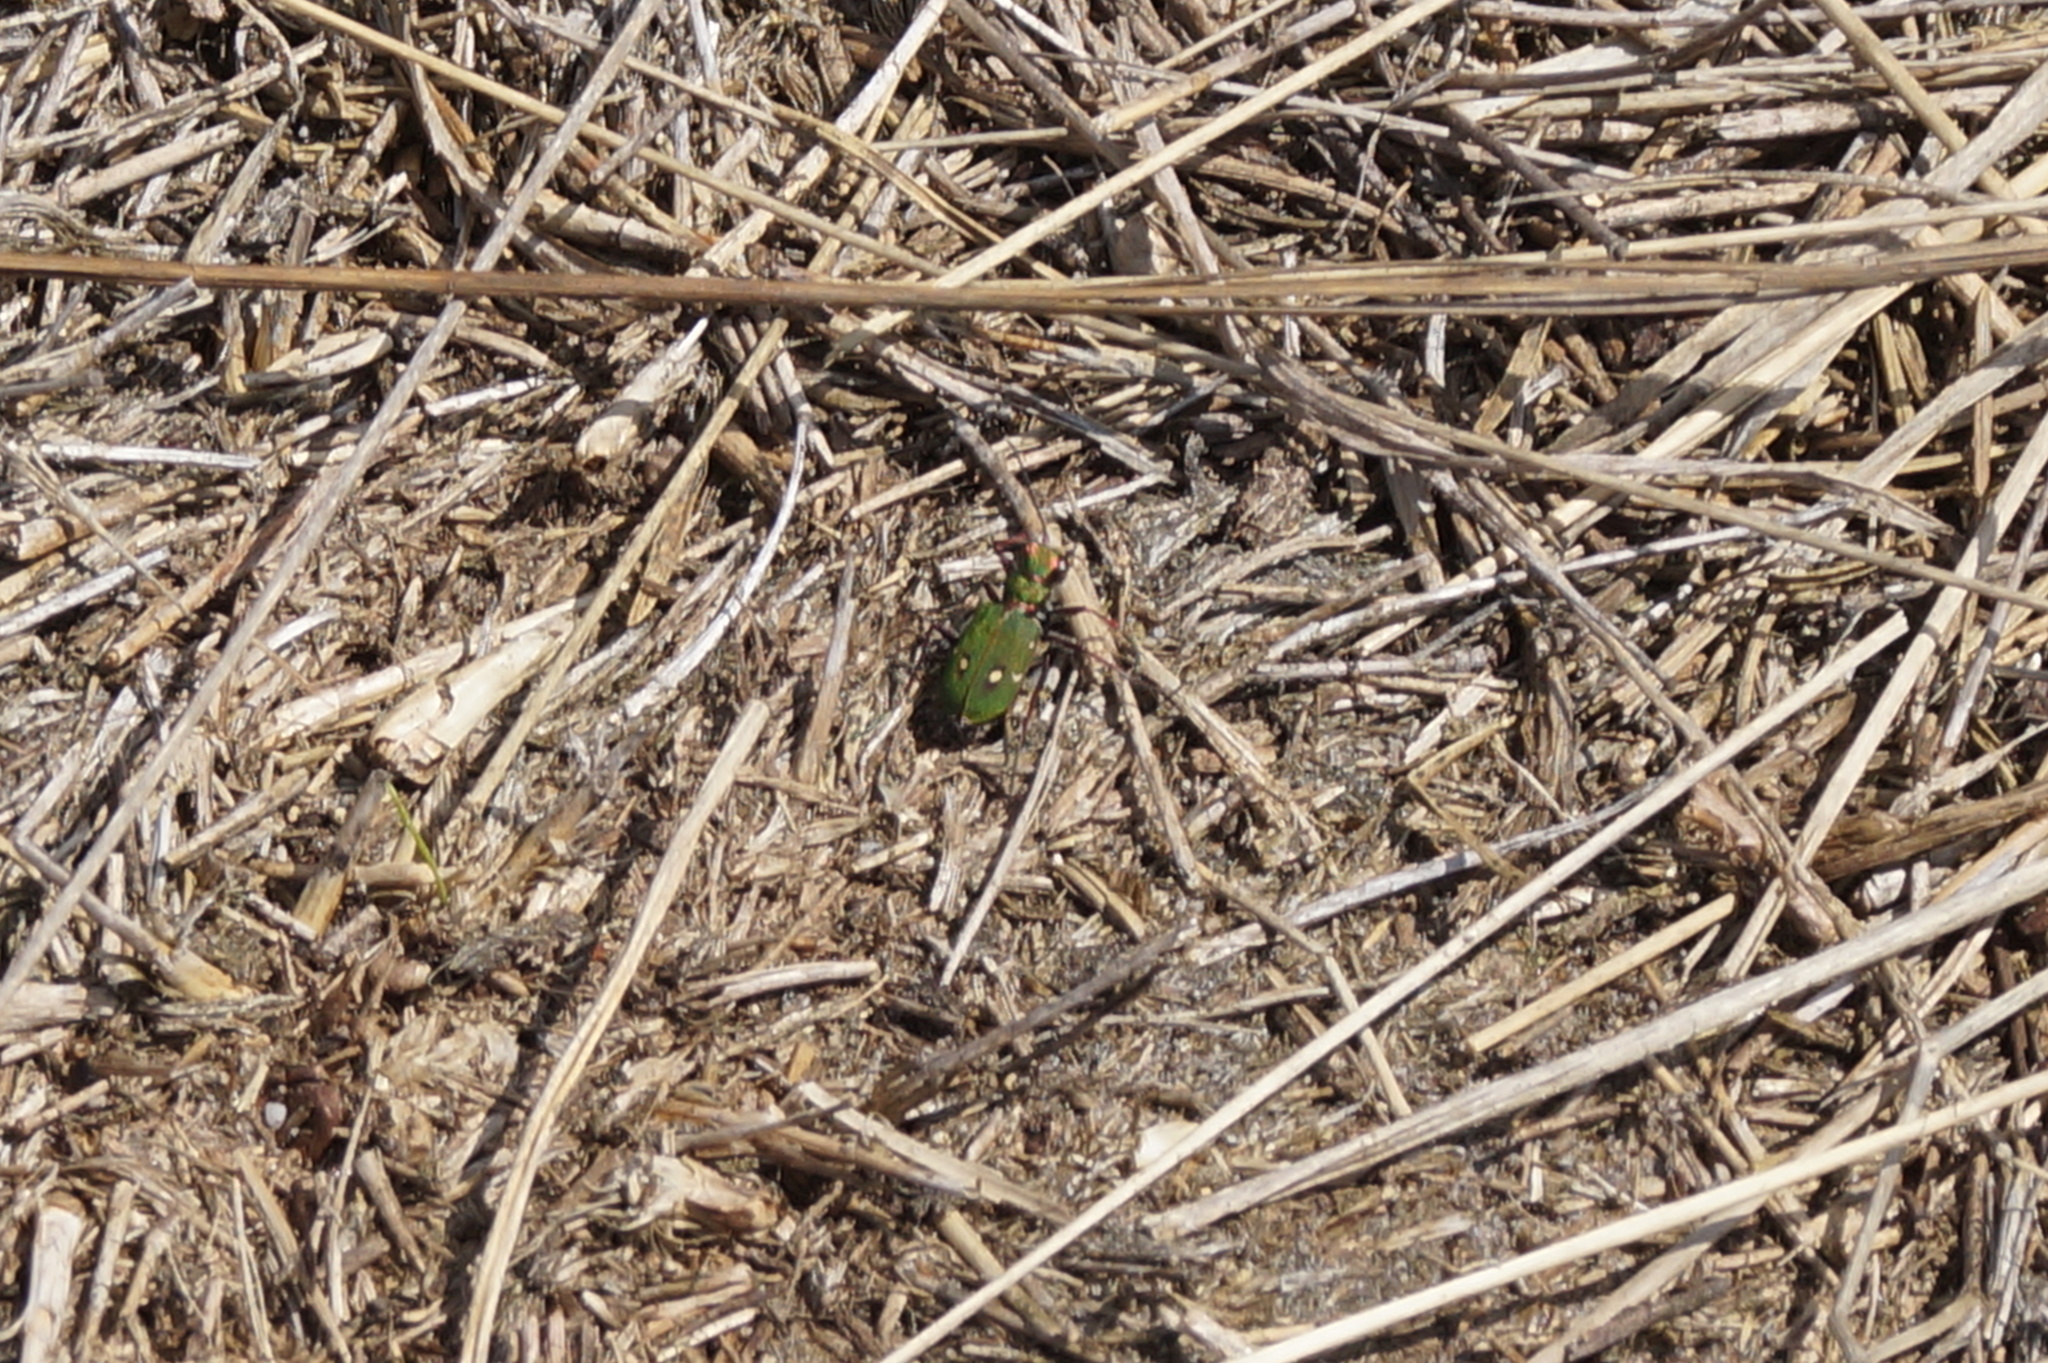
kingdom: Animalia
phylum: Arthropoda
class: Insecta
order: Coleoptera
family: Carabidae
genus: Cicindela
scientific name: Cicindela campestris
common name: Common tiger beetle
